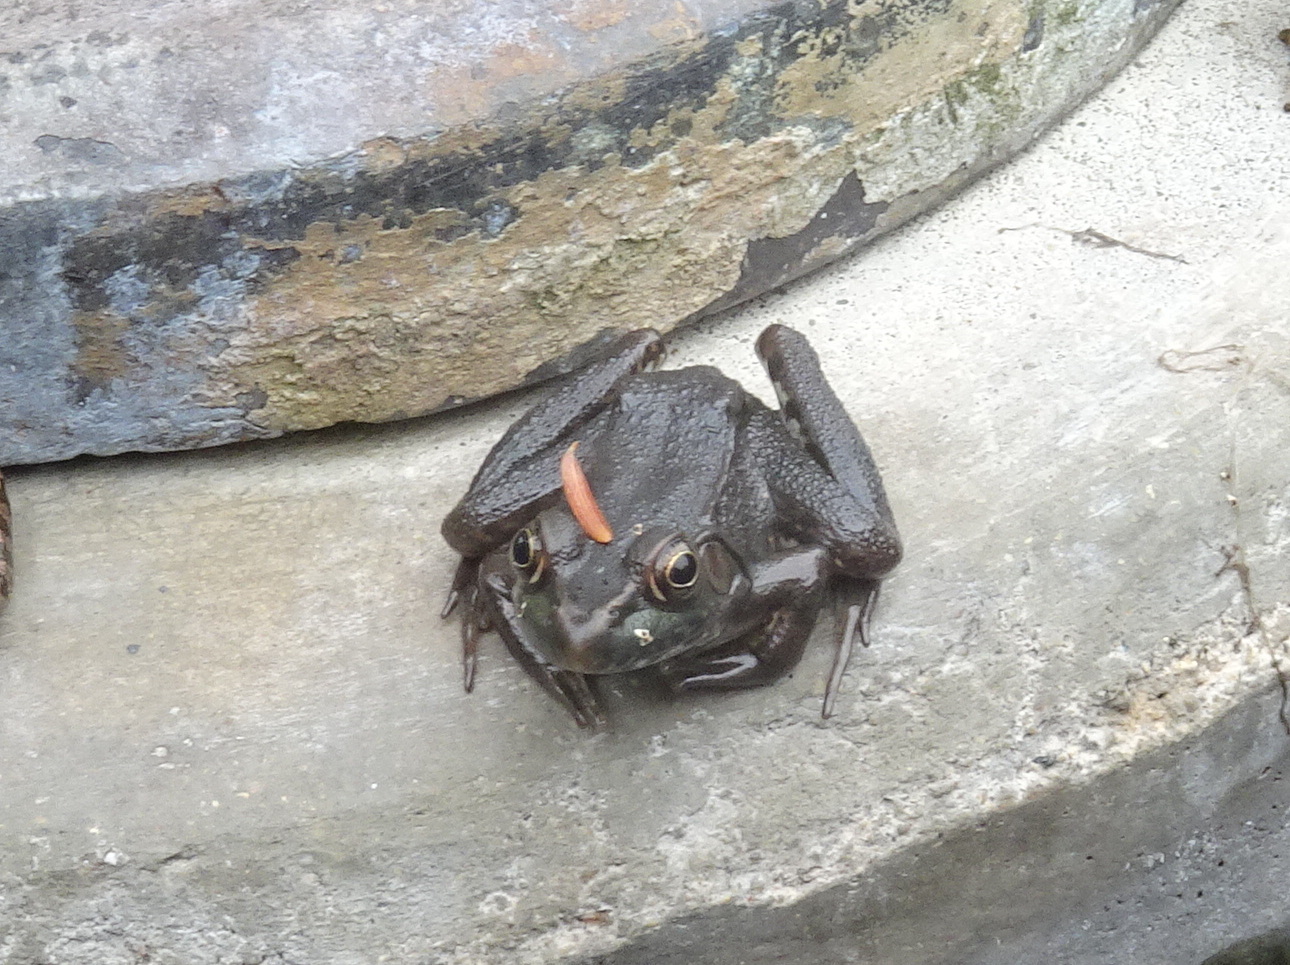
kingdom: Animalia
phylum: Chordata
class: Amphibia
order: Anura
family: Ranidae
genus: Lithobates
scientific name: Lithobates clamitans
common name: Green frog
